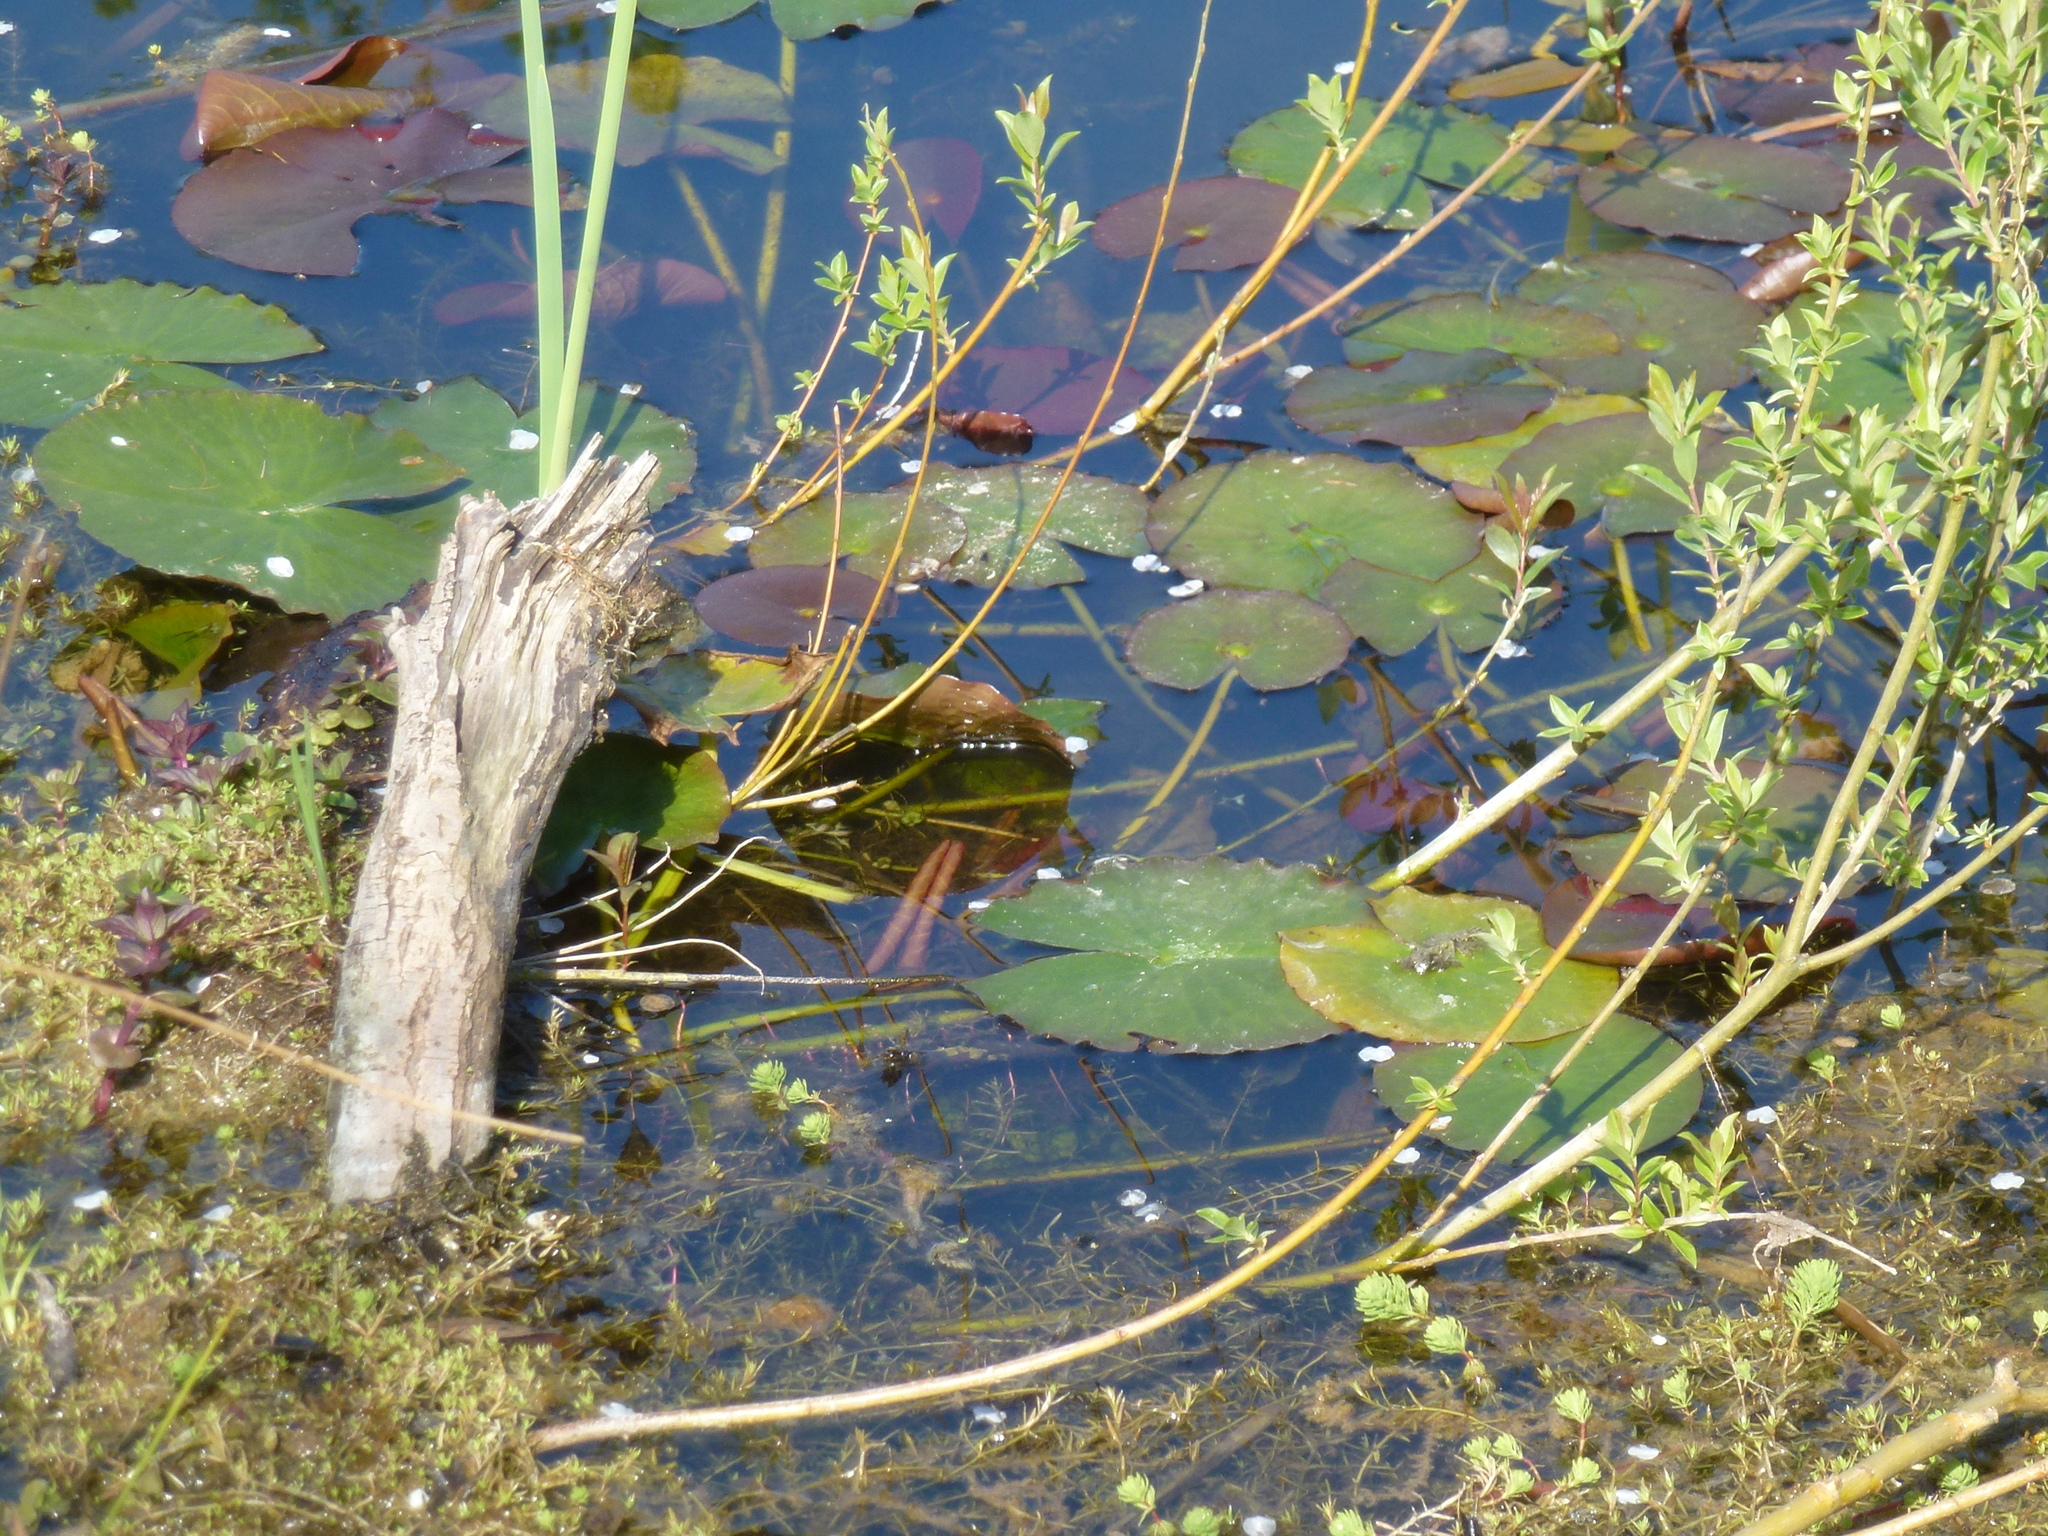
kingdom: Plantae
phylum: Tracheophyta
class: Magnoliopsida
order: Nymphaeales
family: Nymphaeaceae
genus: Nuphar
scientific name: Nuphar lutea
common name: Yellow water-lily
